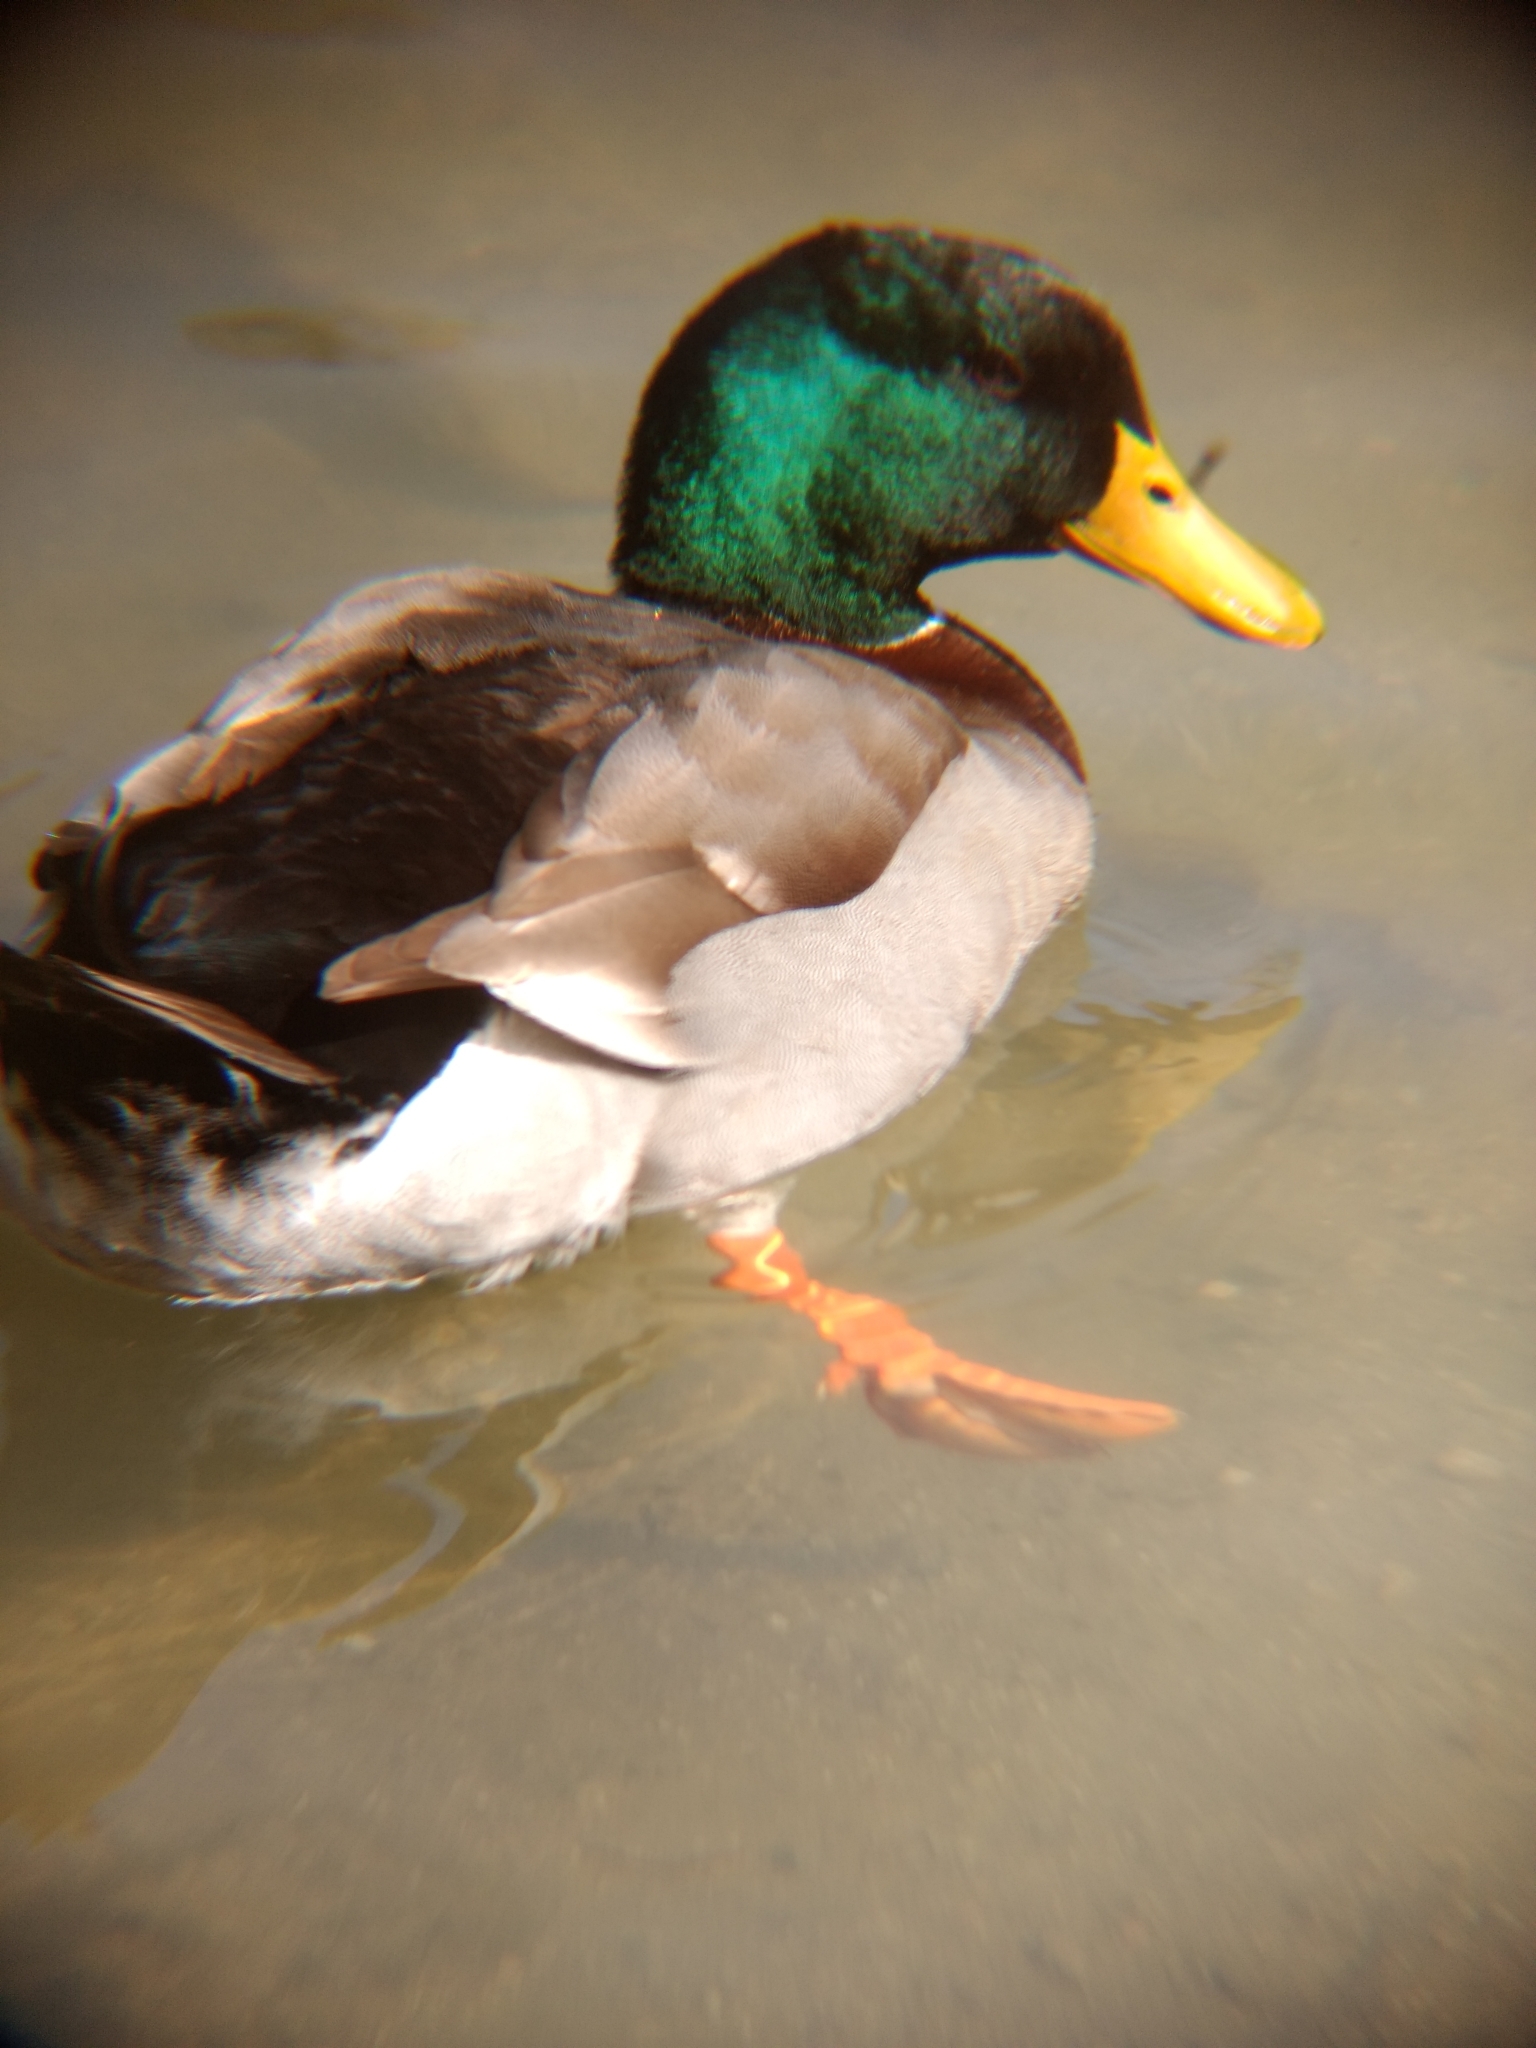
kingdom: Animalia
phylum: Chordata
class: Aves
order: Anseriformes
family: Anatidae
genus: Anas
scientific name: Anas platyrhynchos
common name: Mallard
